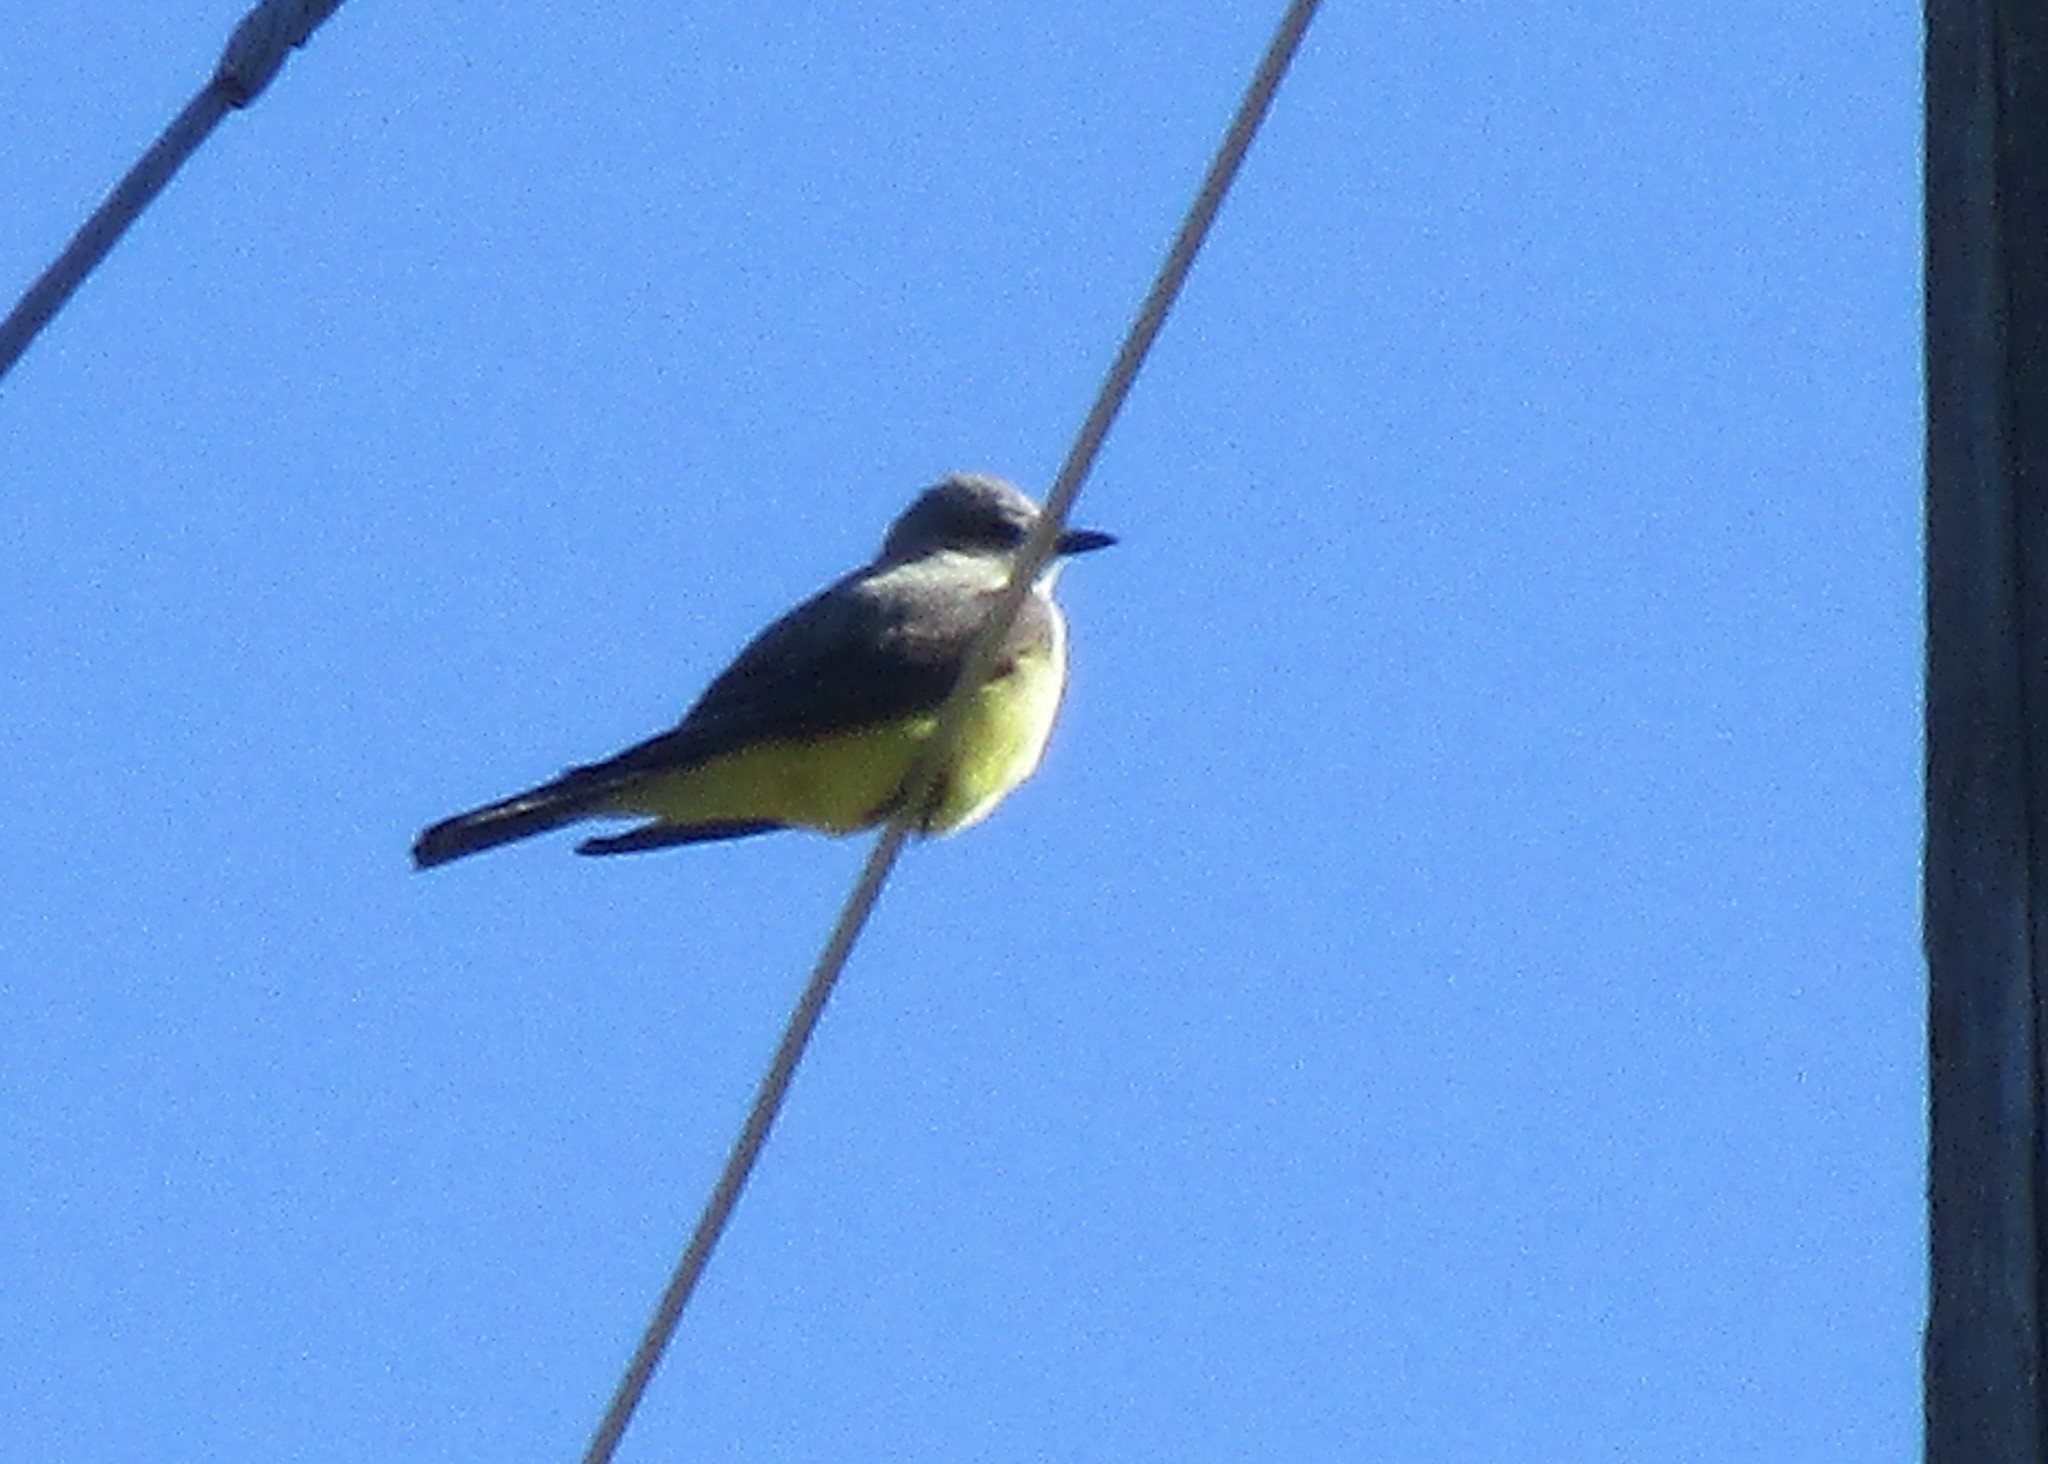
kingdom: Animalia
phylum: Chordata
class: Aves
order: Passeriformes
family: Tyrannidae
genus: Tyrannus
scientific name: Tyrannus verticalis
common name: Western kingbird
